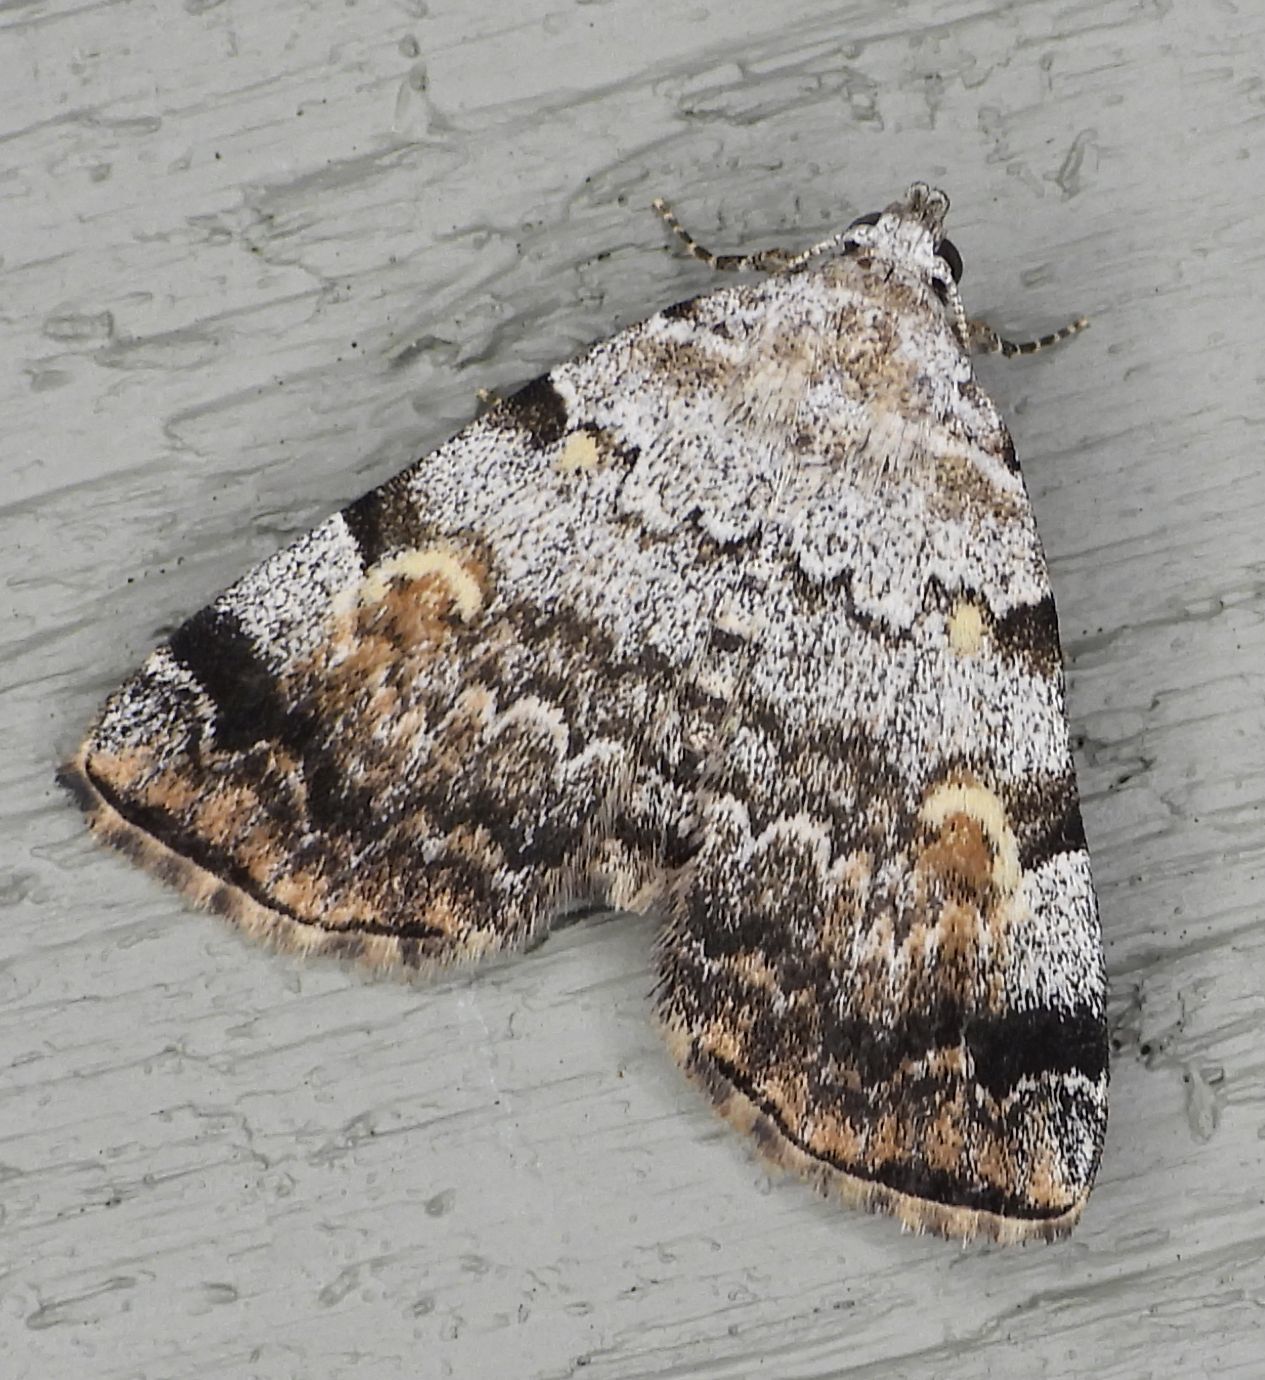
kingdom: Animalia
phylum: Arthropoda
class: Insecta
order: Lepidoptera
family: Erebidae
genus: Idia
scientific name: Idia americalis
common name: American idia moth
